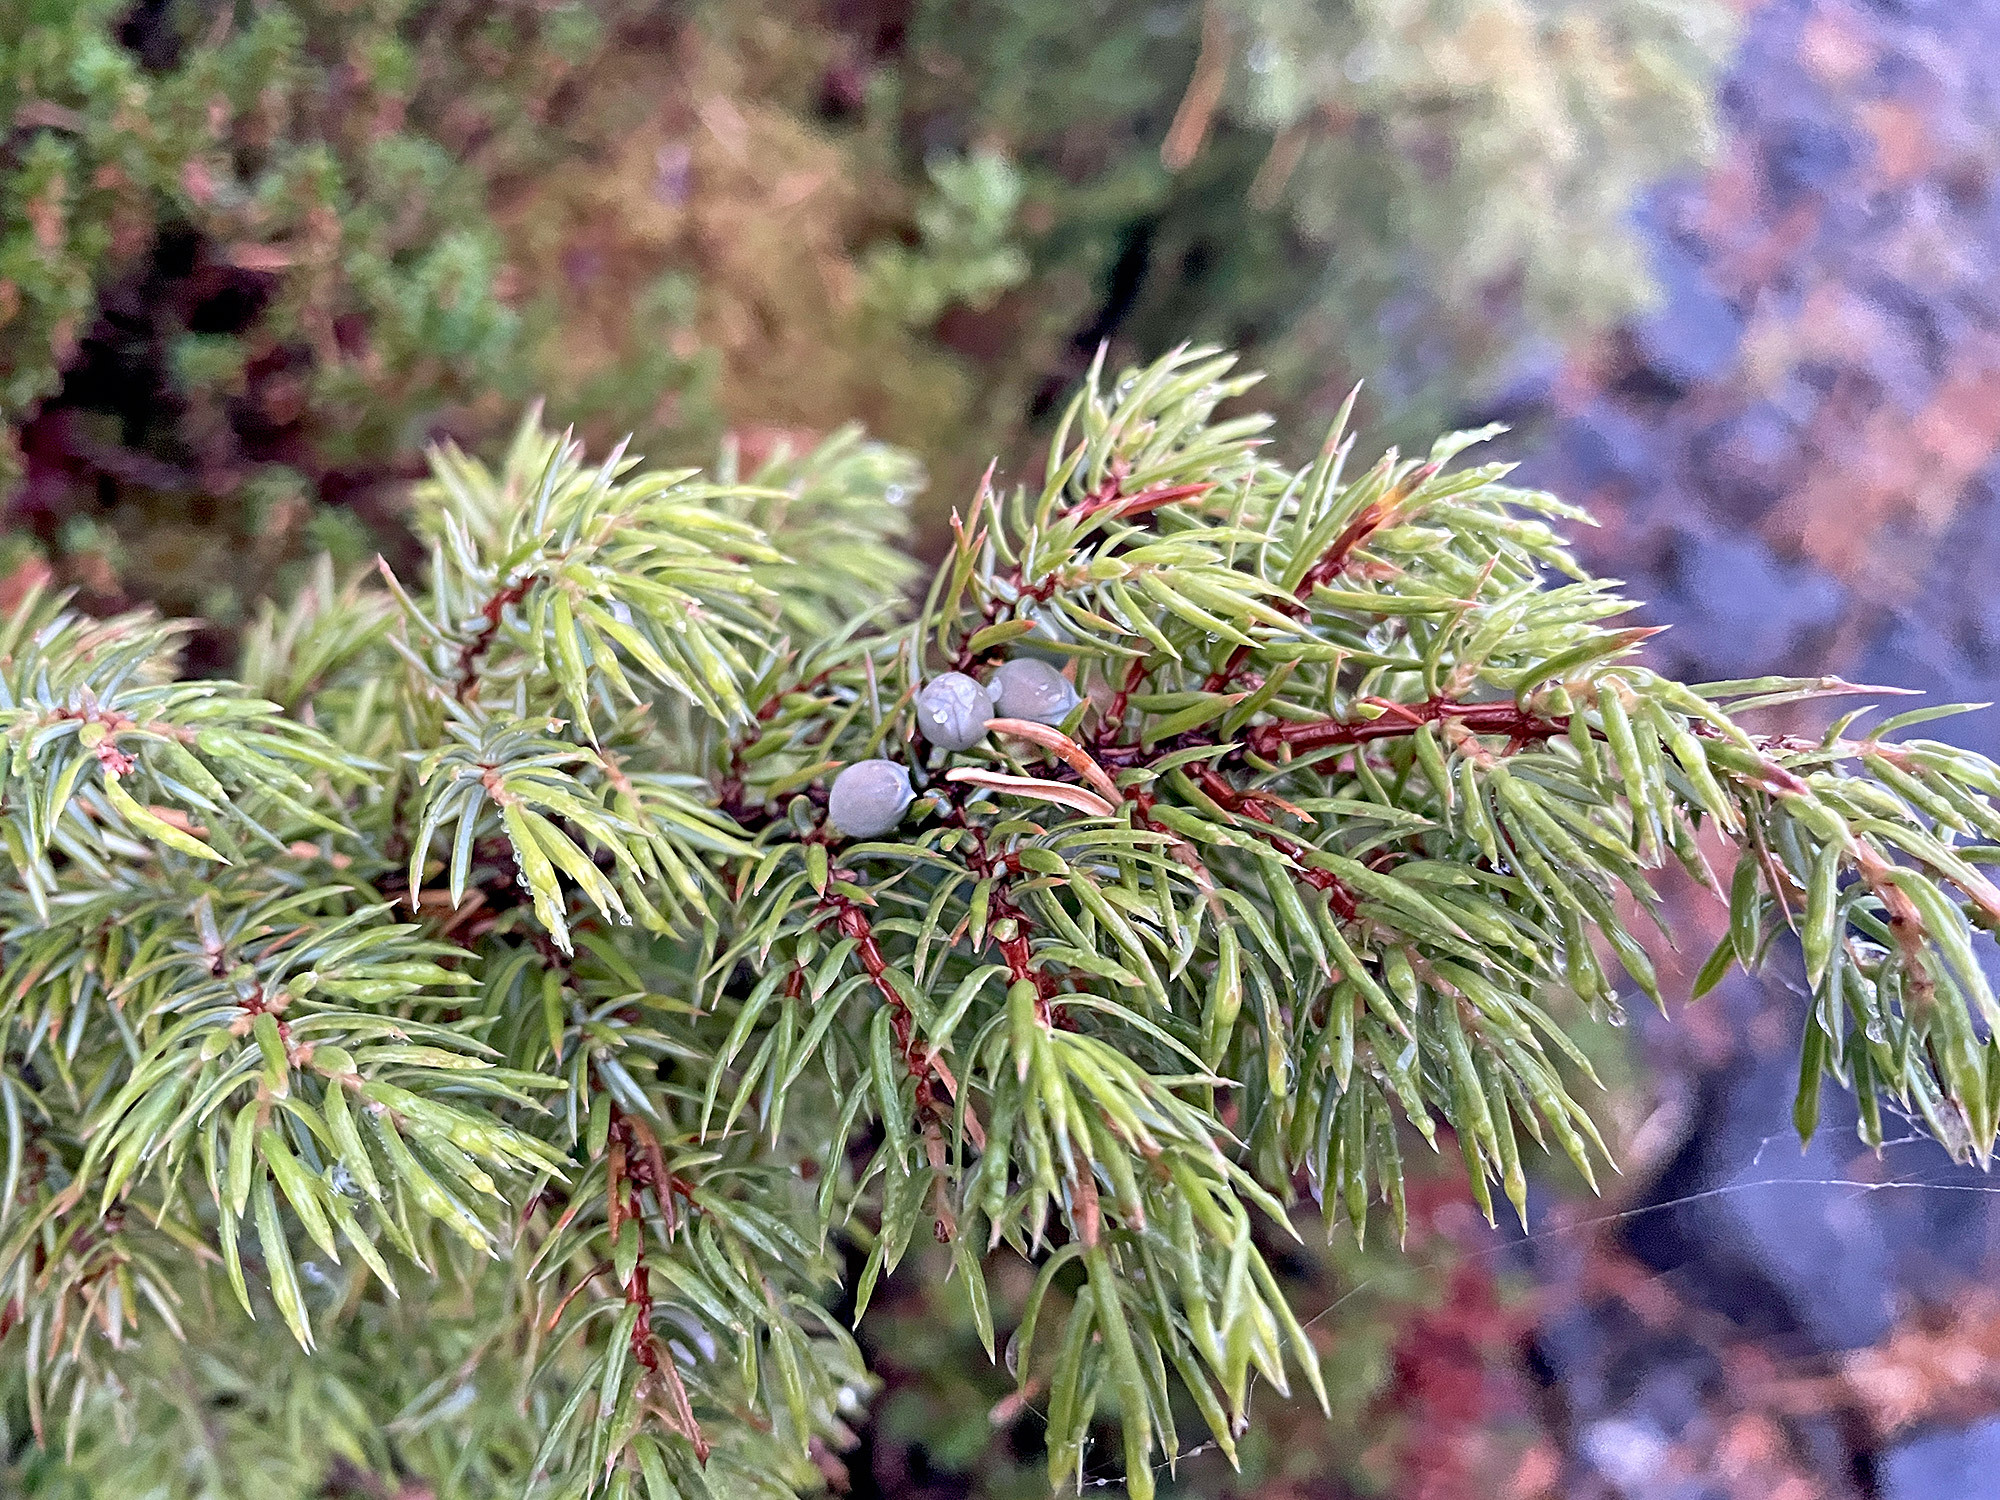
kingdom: Plantae
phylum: Tracheophyta
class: Pinopsida
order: Pinales
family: Cupressaceae
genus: Juniperus
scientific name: Juniperus communis
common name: Common juniper
